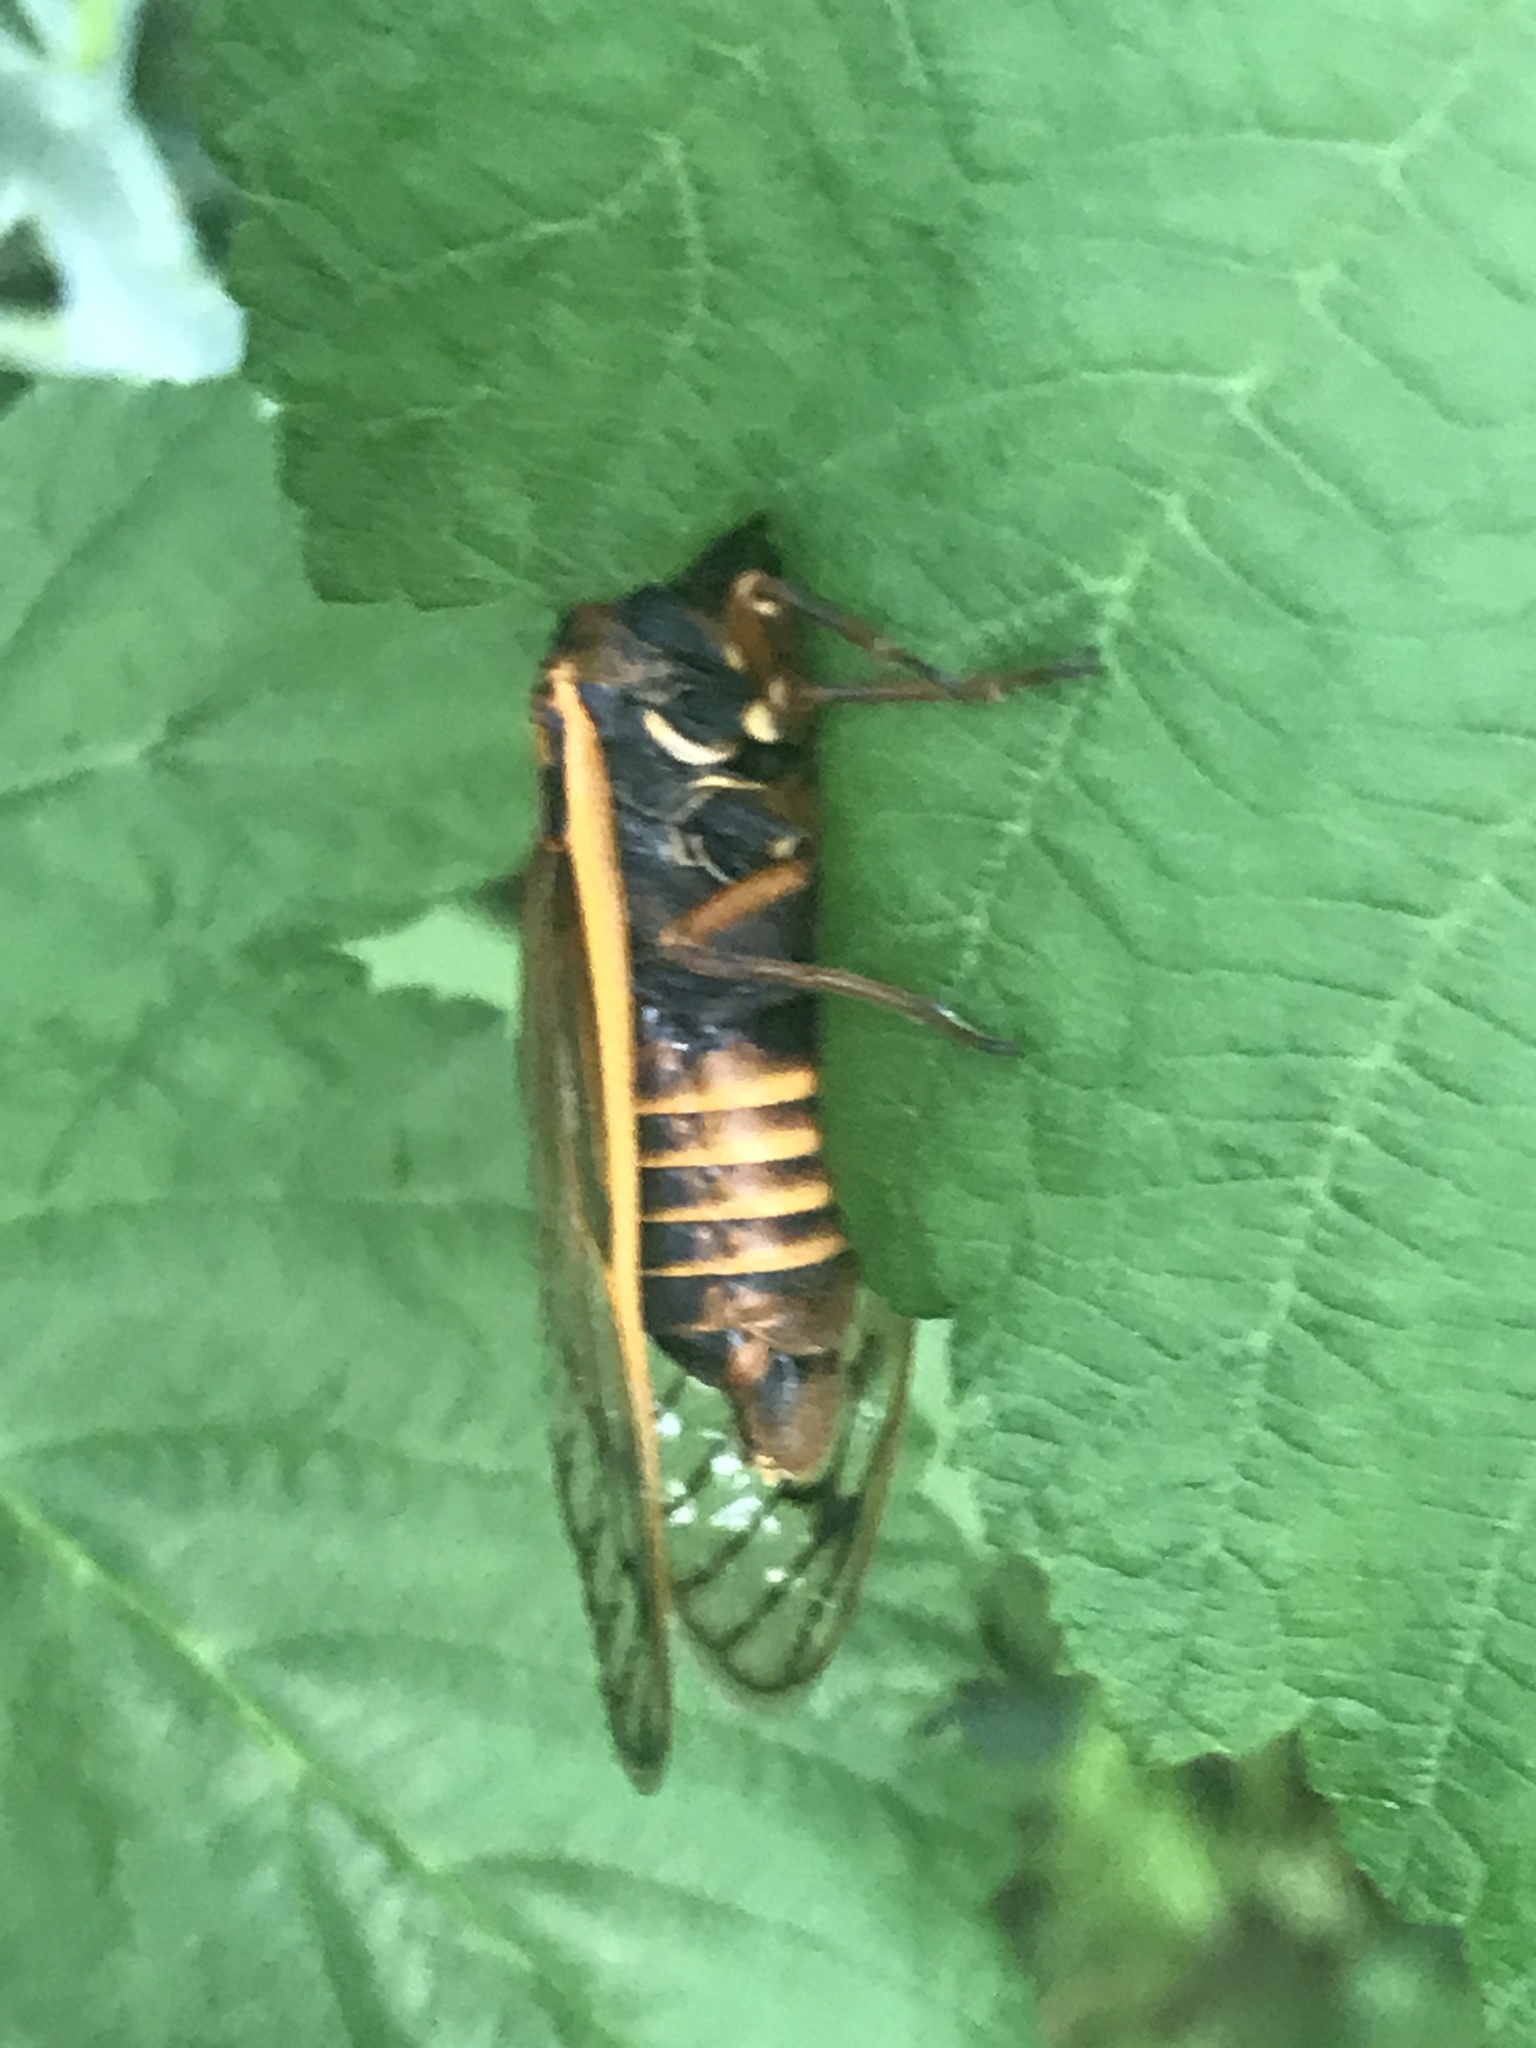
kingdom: Animalia
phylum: Arthropoda
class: Insecta
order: Hemiptera
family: Cicadidae
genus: Magicicada
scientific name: Magicicada septendecim
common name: Periodical cicada
